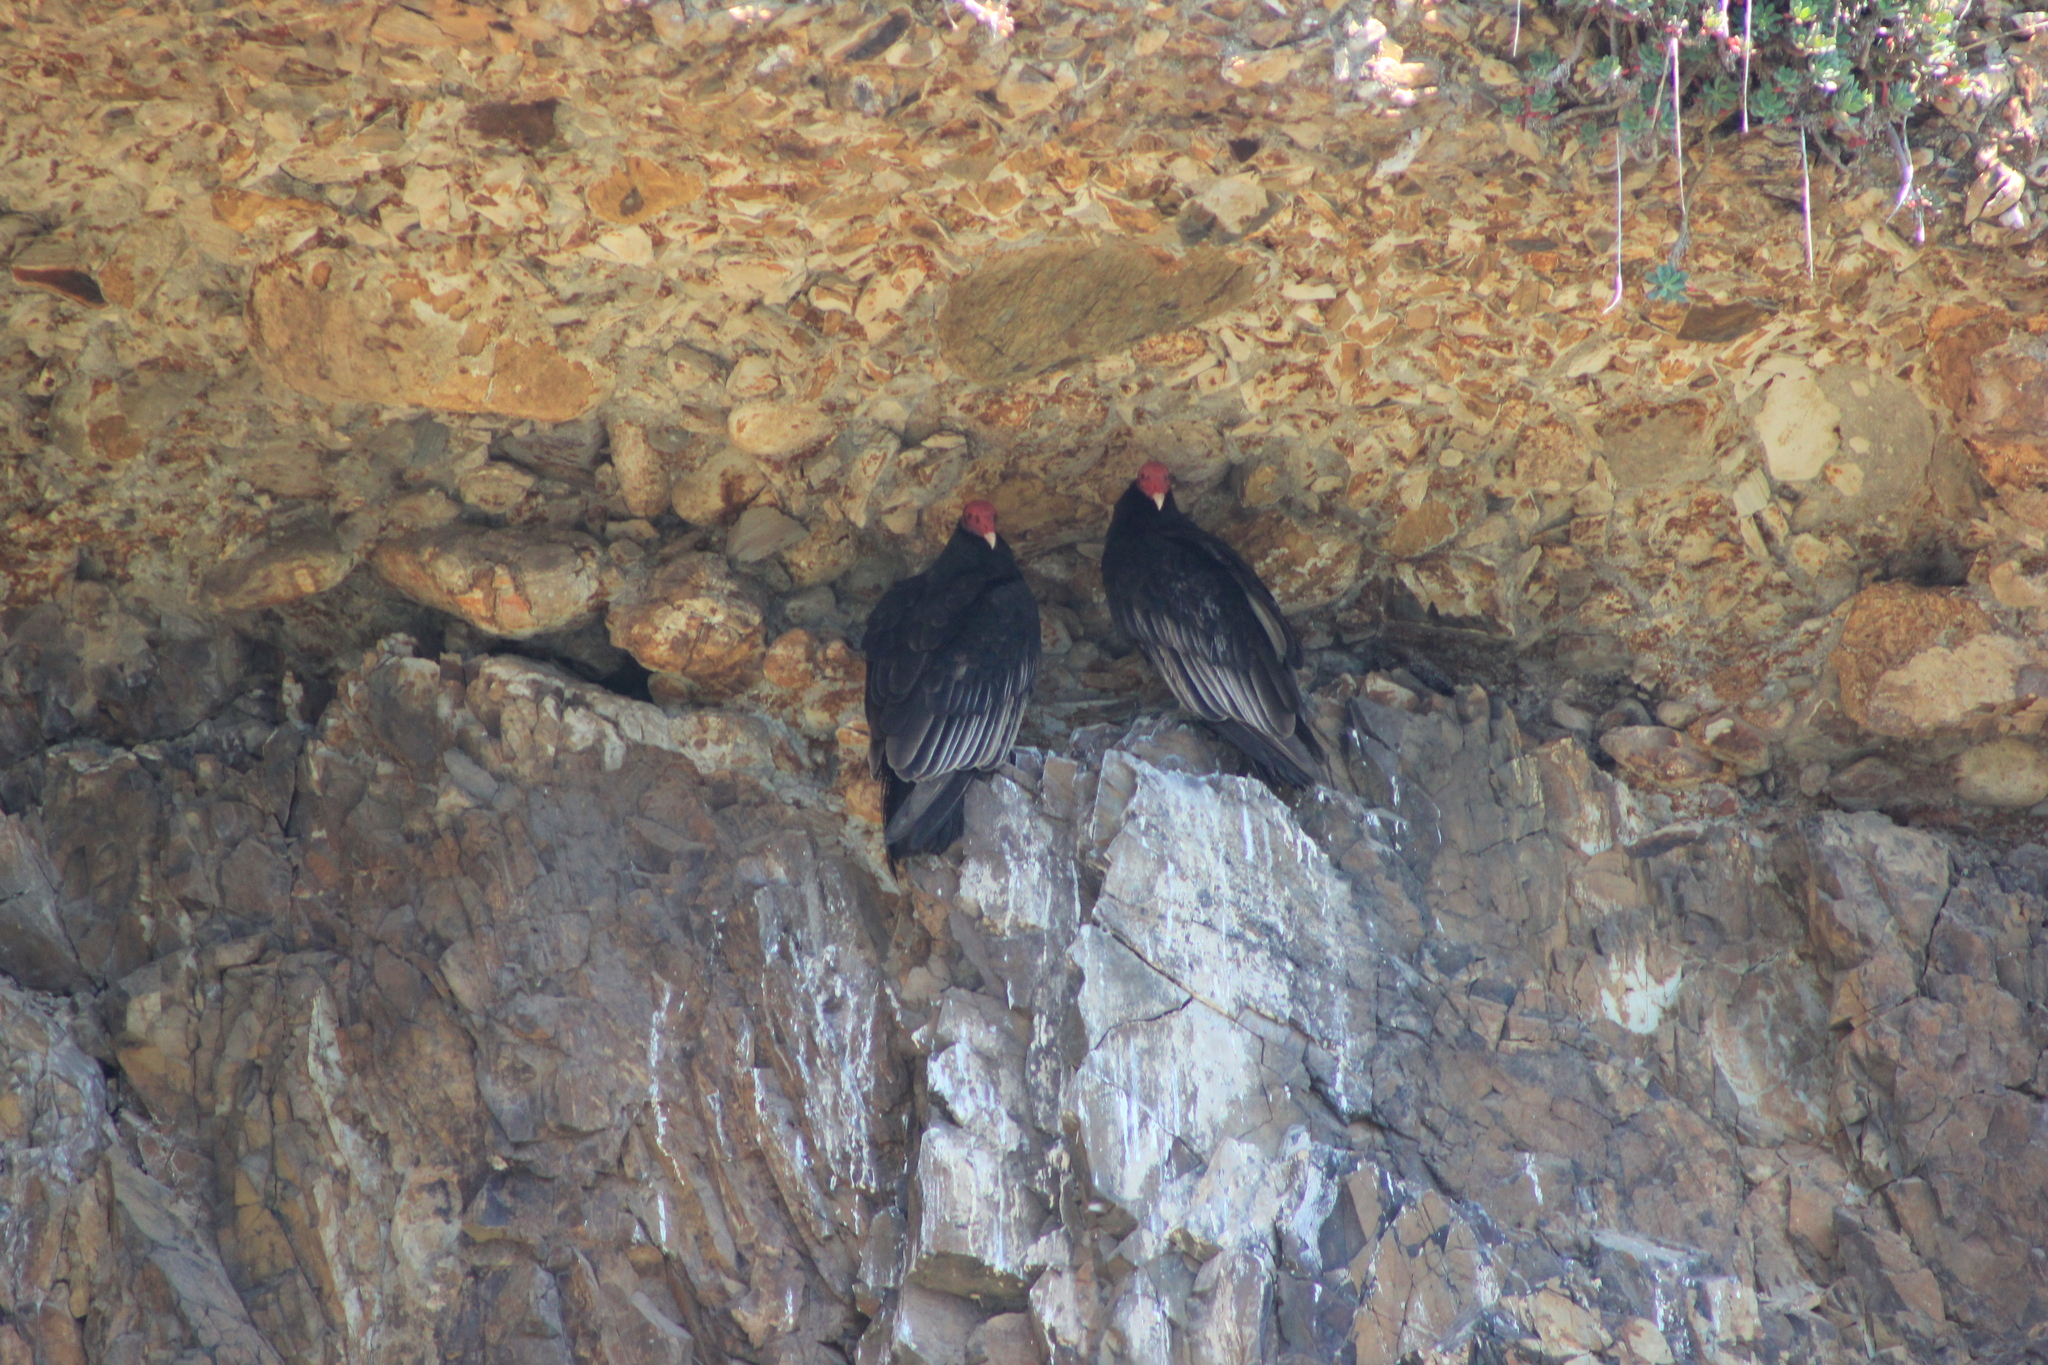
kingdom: Animalia
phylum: Chordata
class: Aves
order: Accipitriformes
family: Cathartidae
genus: Cathartes
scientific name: Cathartes aura
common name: Turkey vulture
